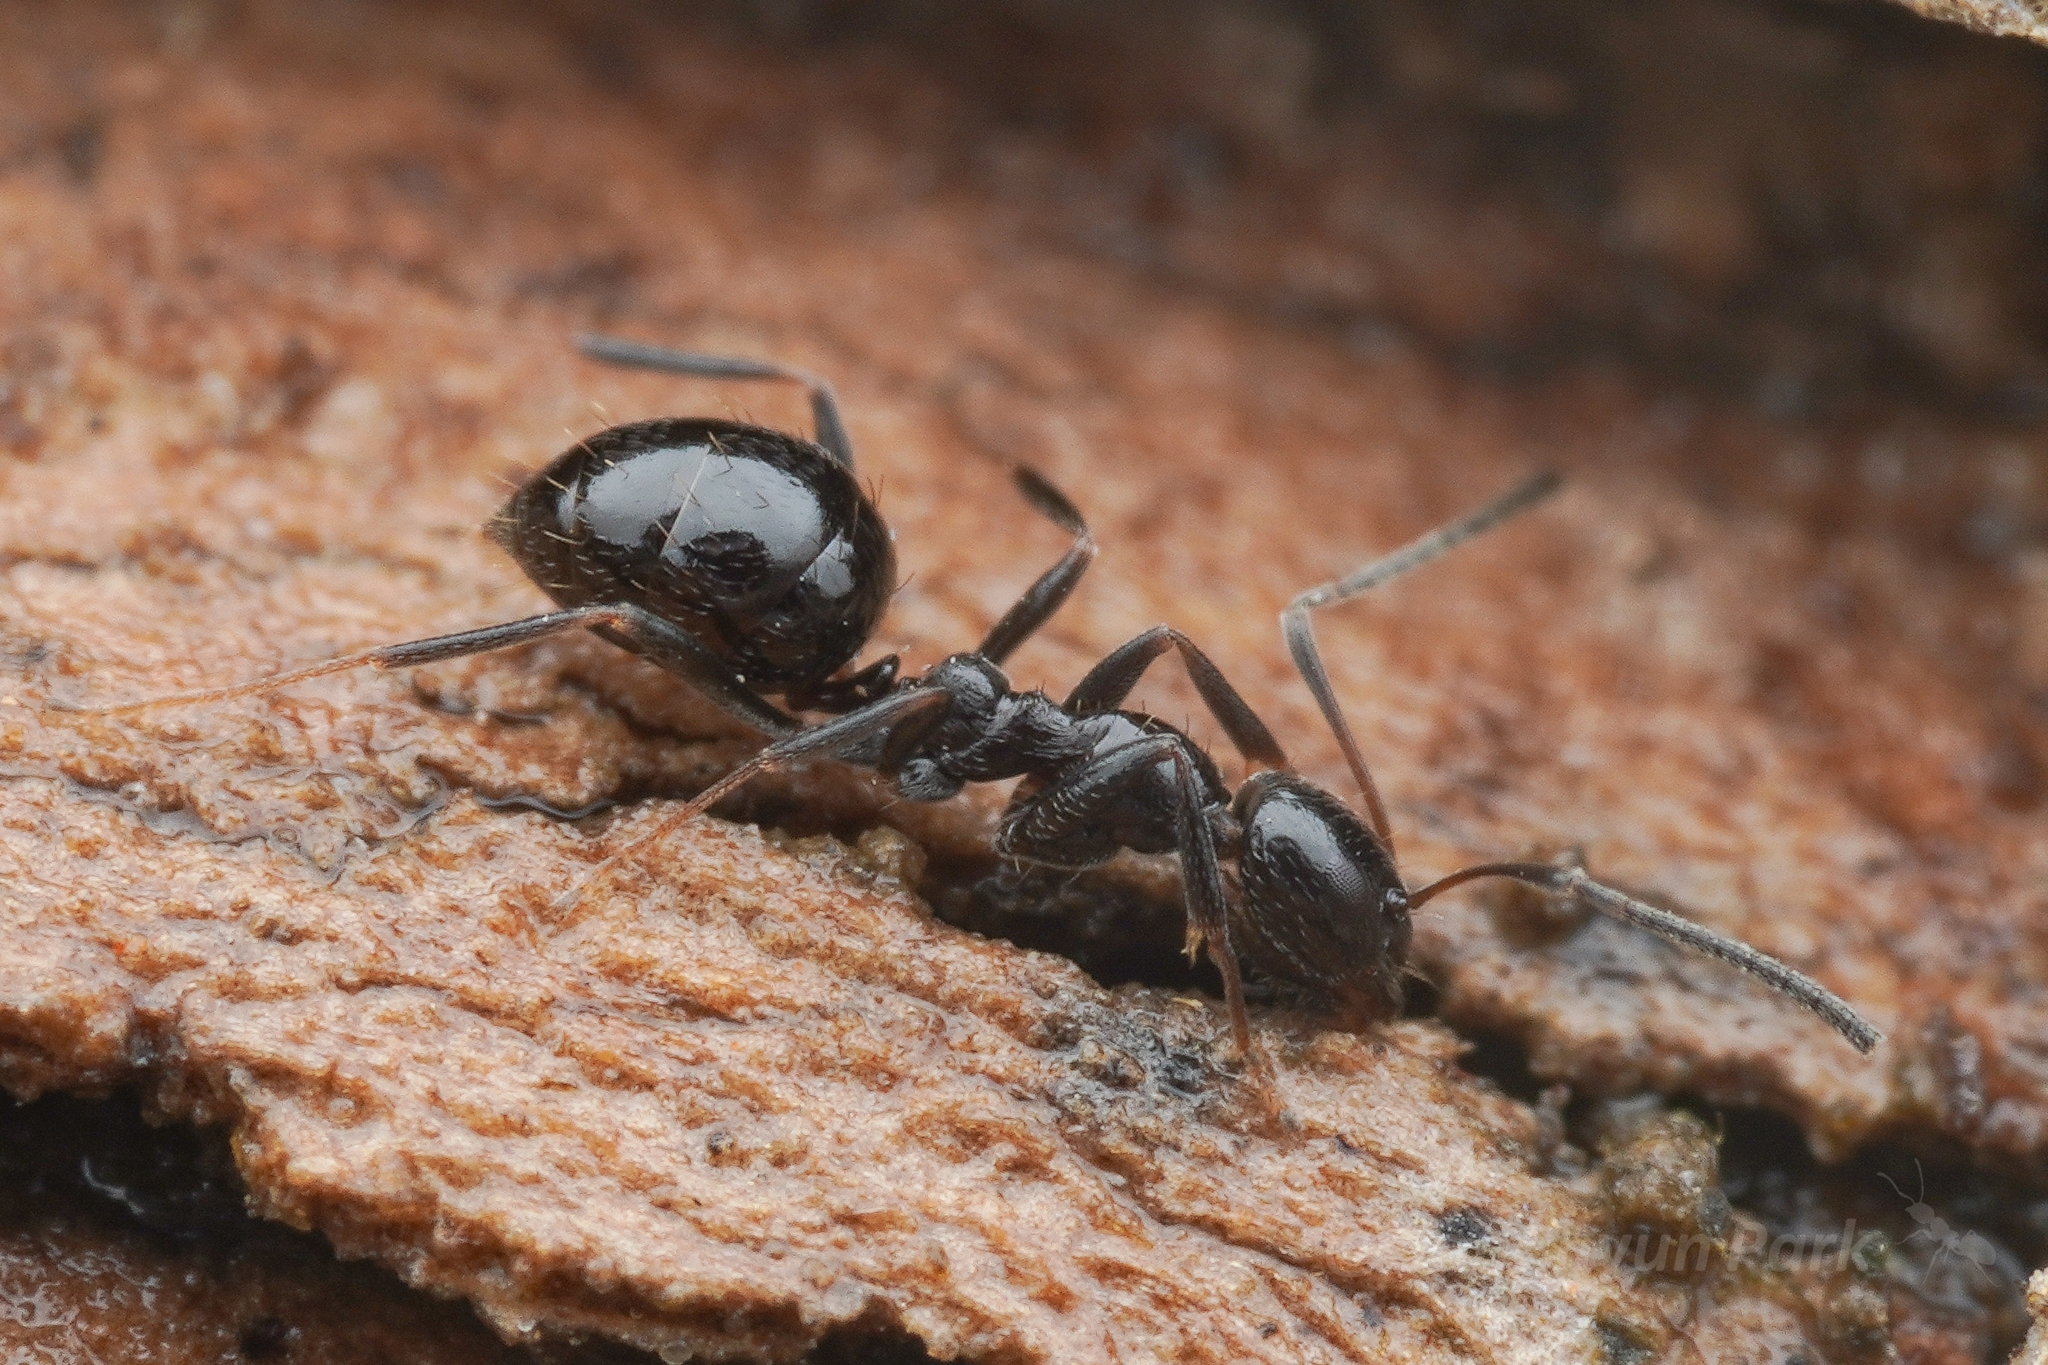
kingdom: Animalia
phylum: Arthropoda
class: Insecta
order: Hymenoptera
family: Formicidae
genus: Plagiolepis
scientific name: Plagiolepis deweti
